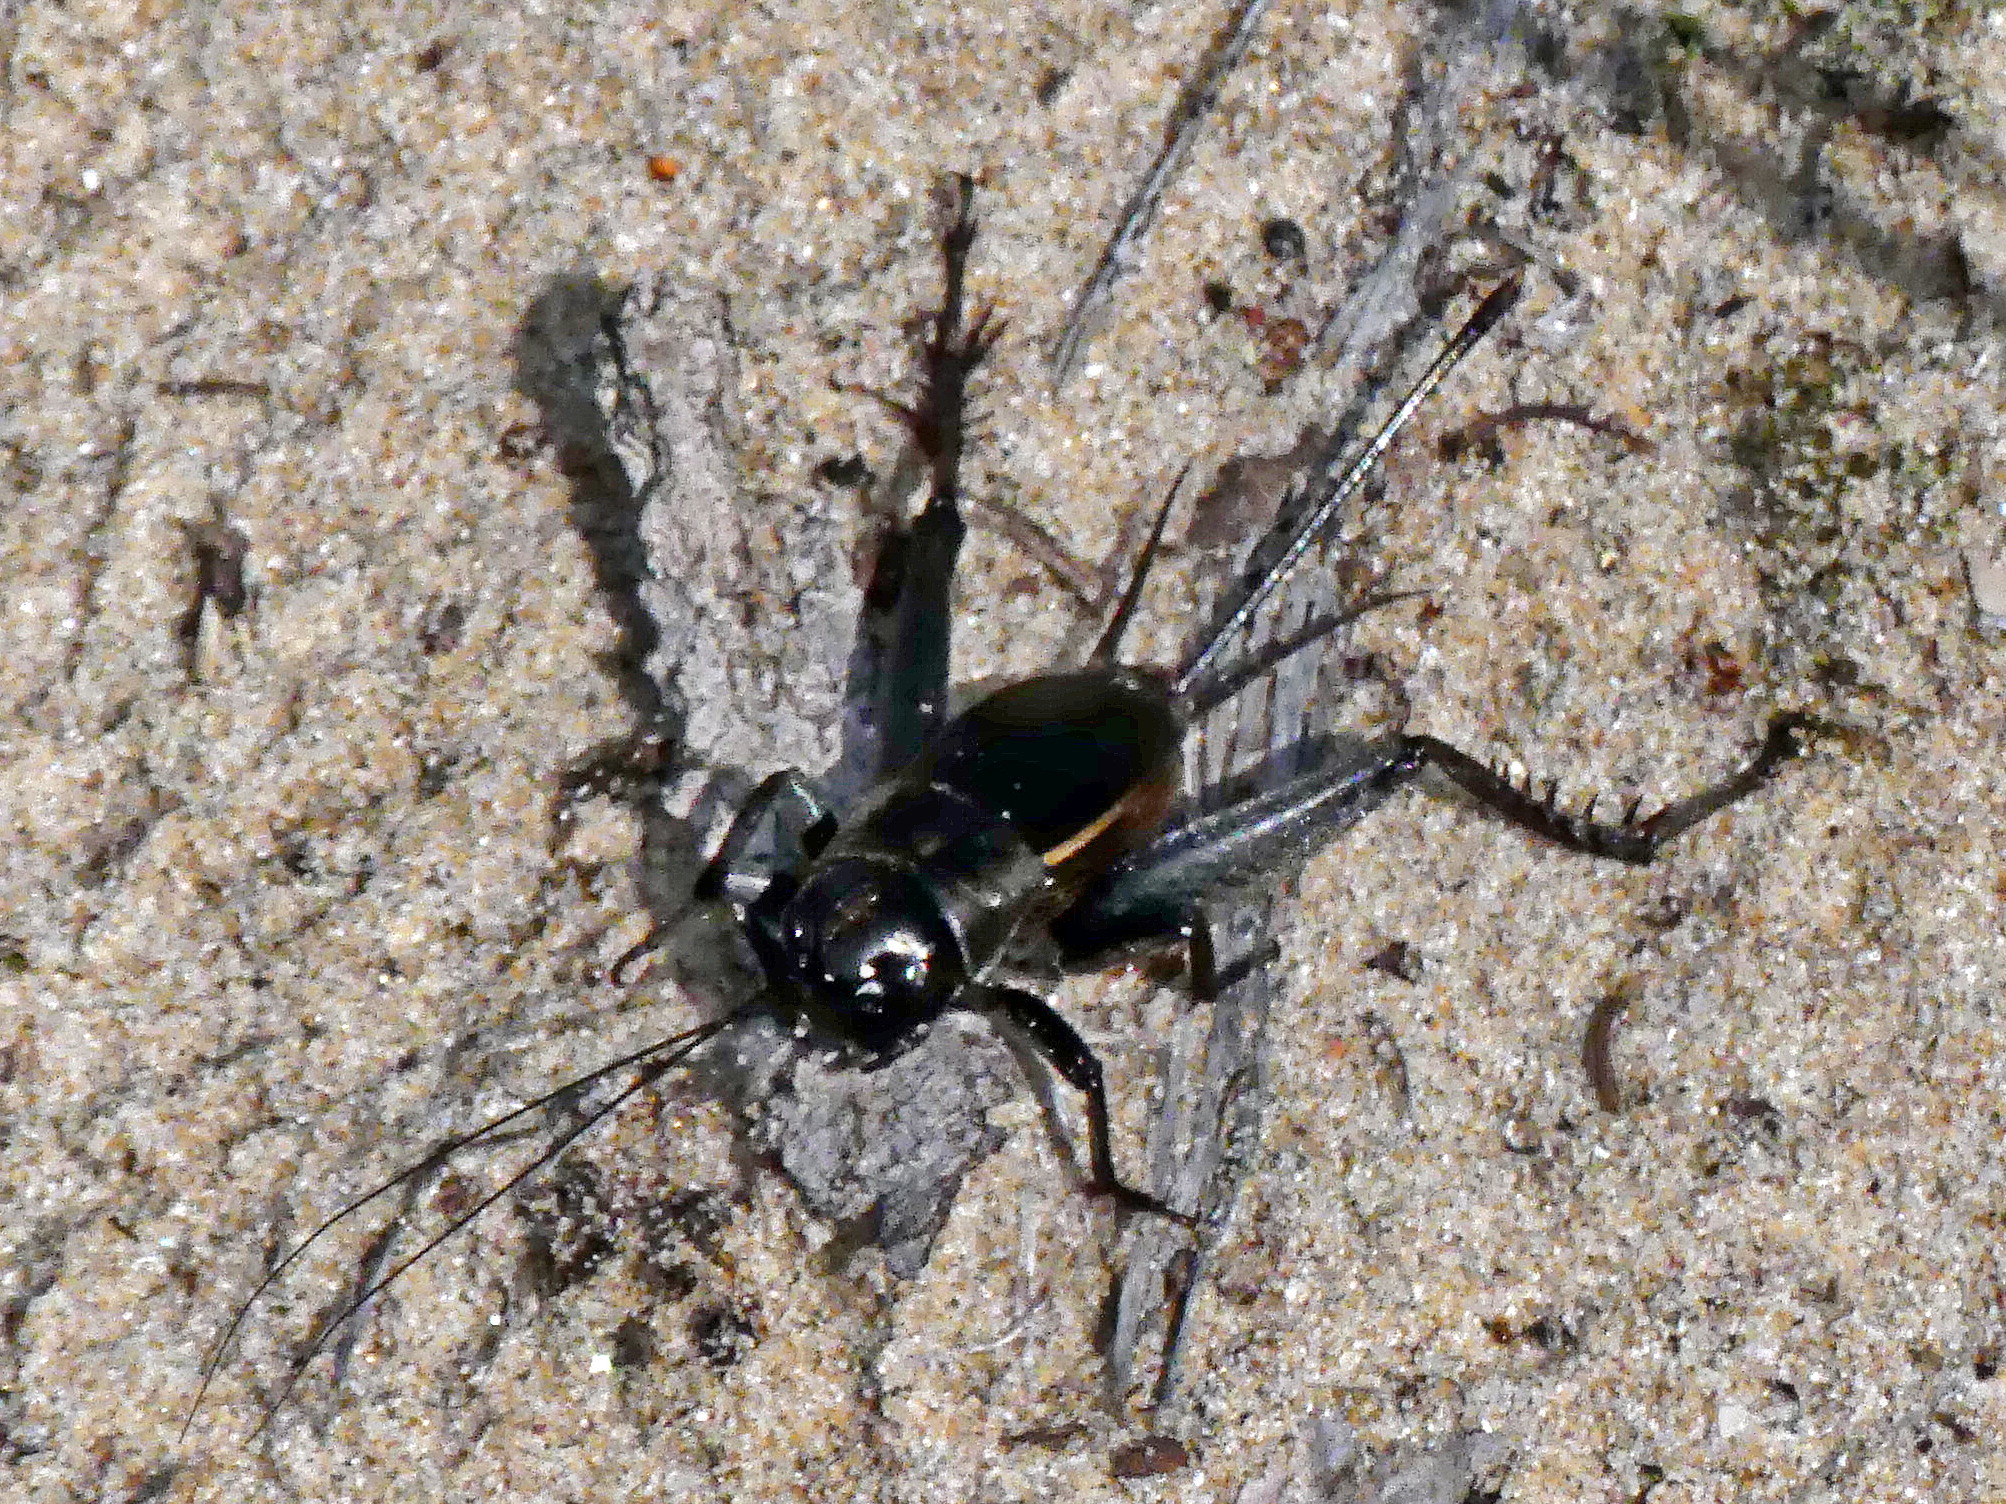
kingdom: Animalia
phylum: Arthropoda
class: Insecta
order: Orthoptera
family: Gryllidae
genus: Gryllus
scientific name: Gryllus pennsylvanicus
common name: Fall field cricket
